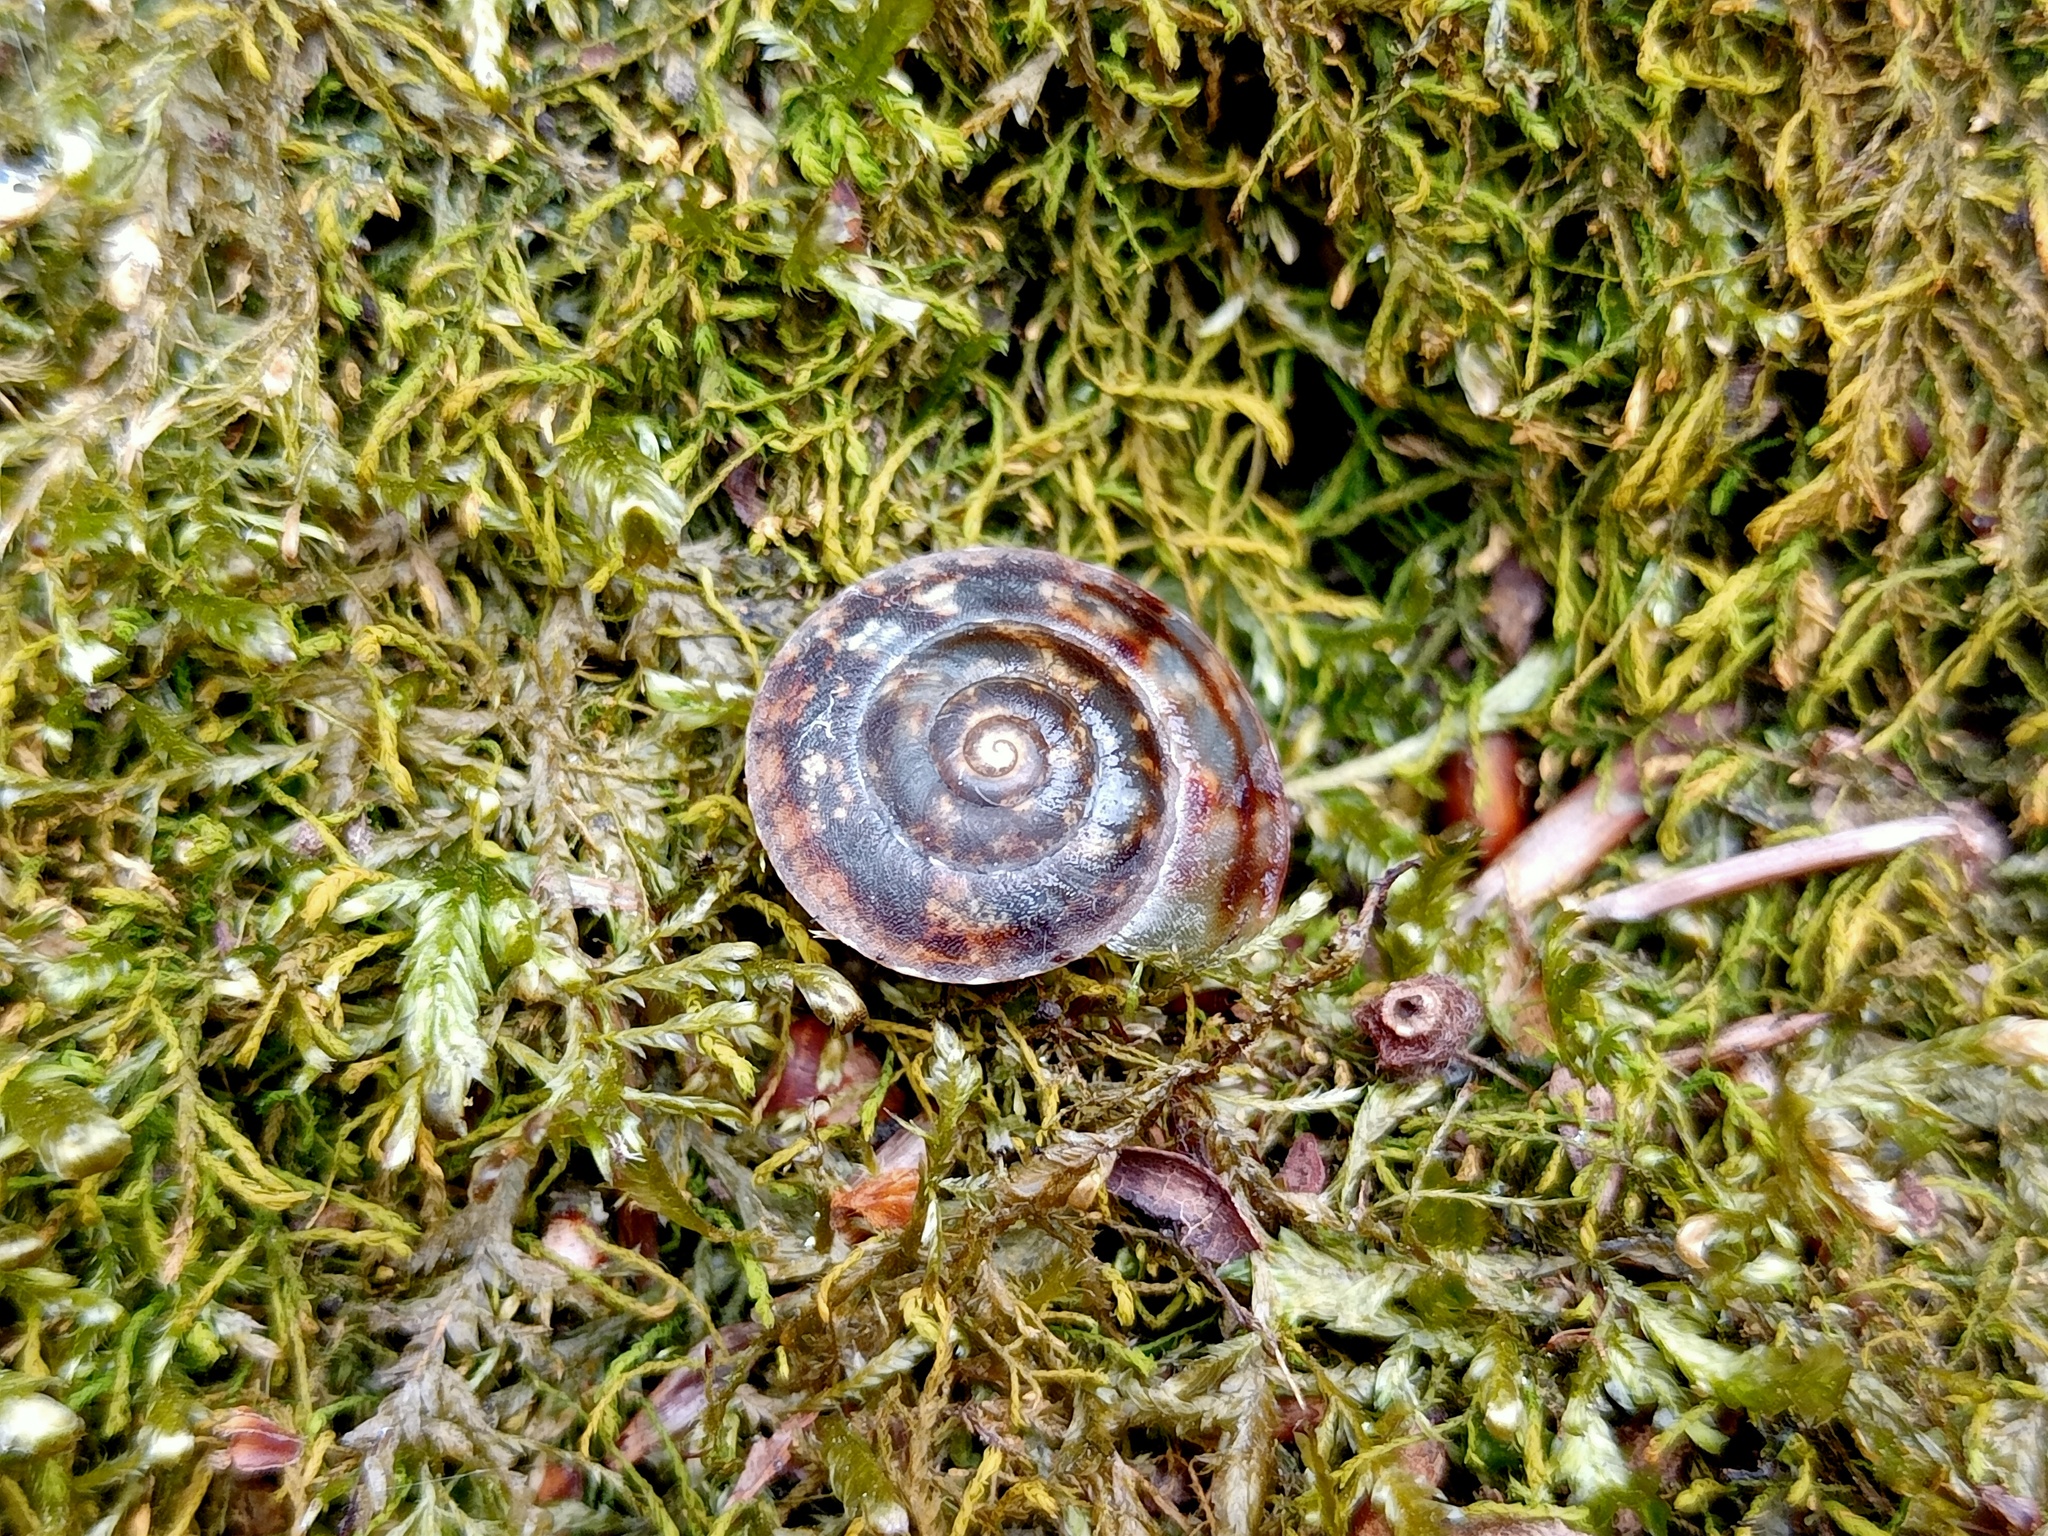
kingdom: Animalia
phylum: Mollusca
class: Gastropoda
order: Stylommatophora
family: Helicidae
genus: Helicigona
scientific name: Helicigona lapicida
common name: Lapidary snail
